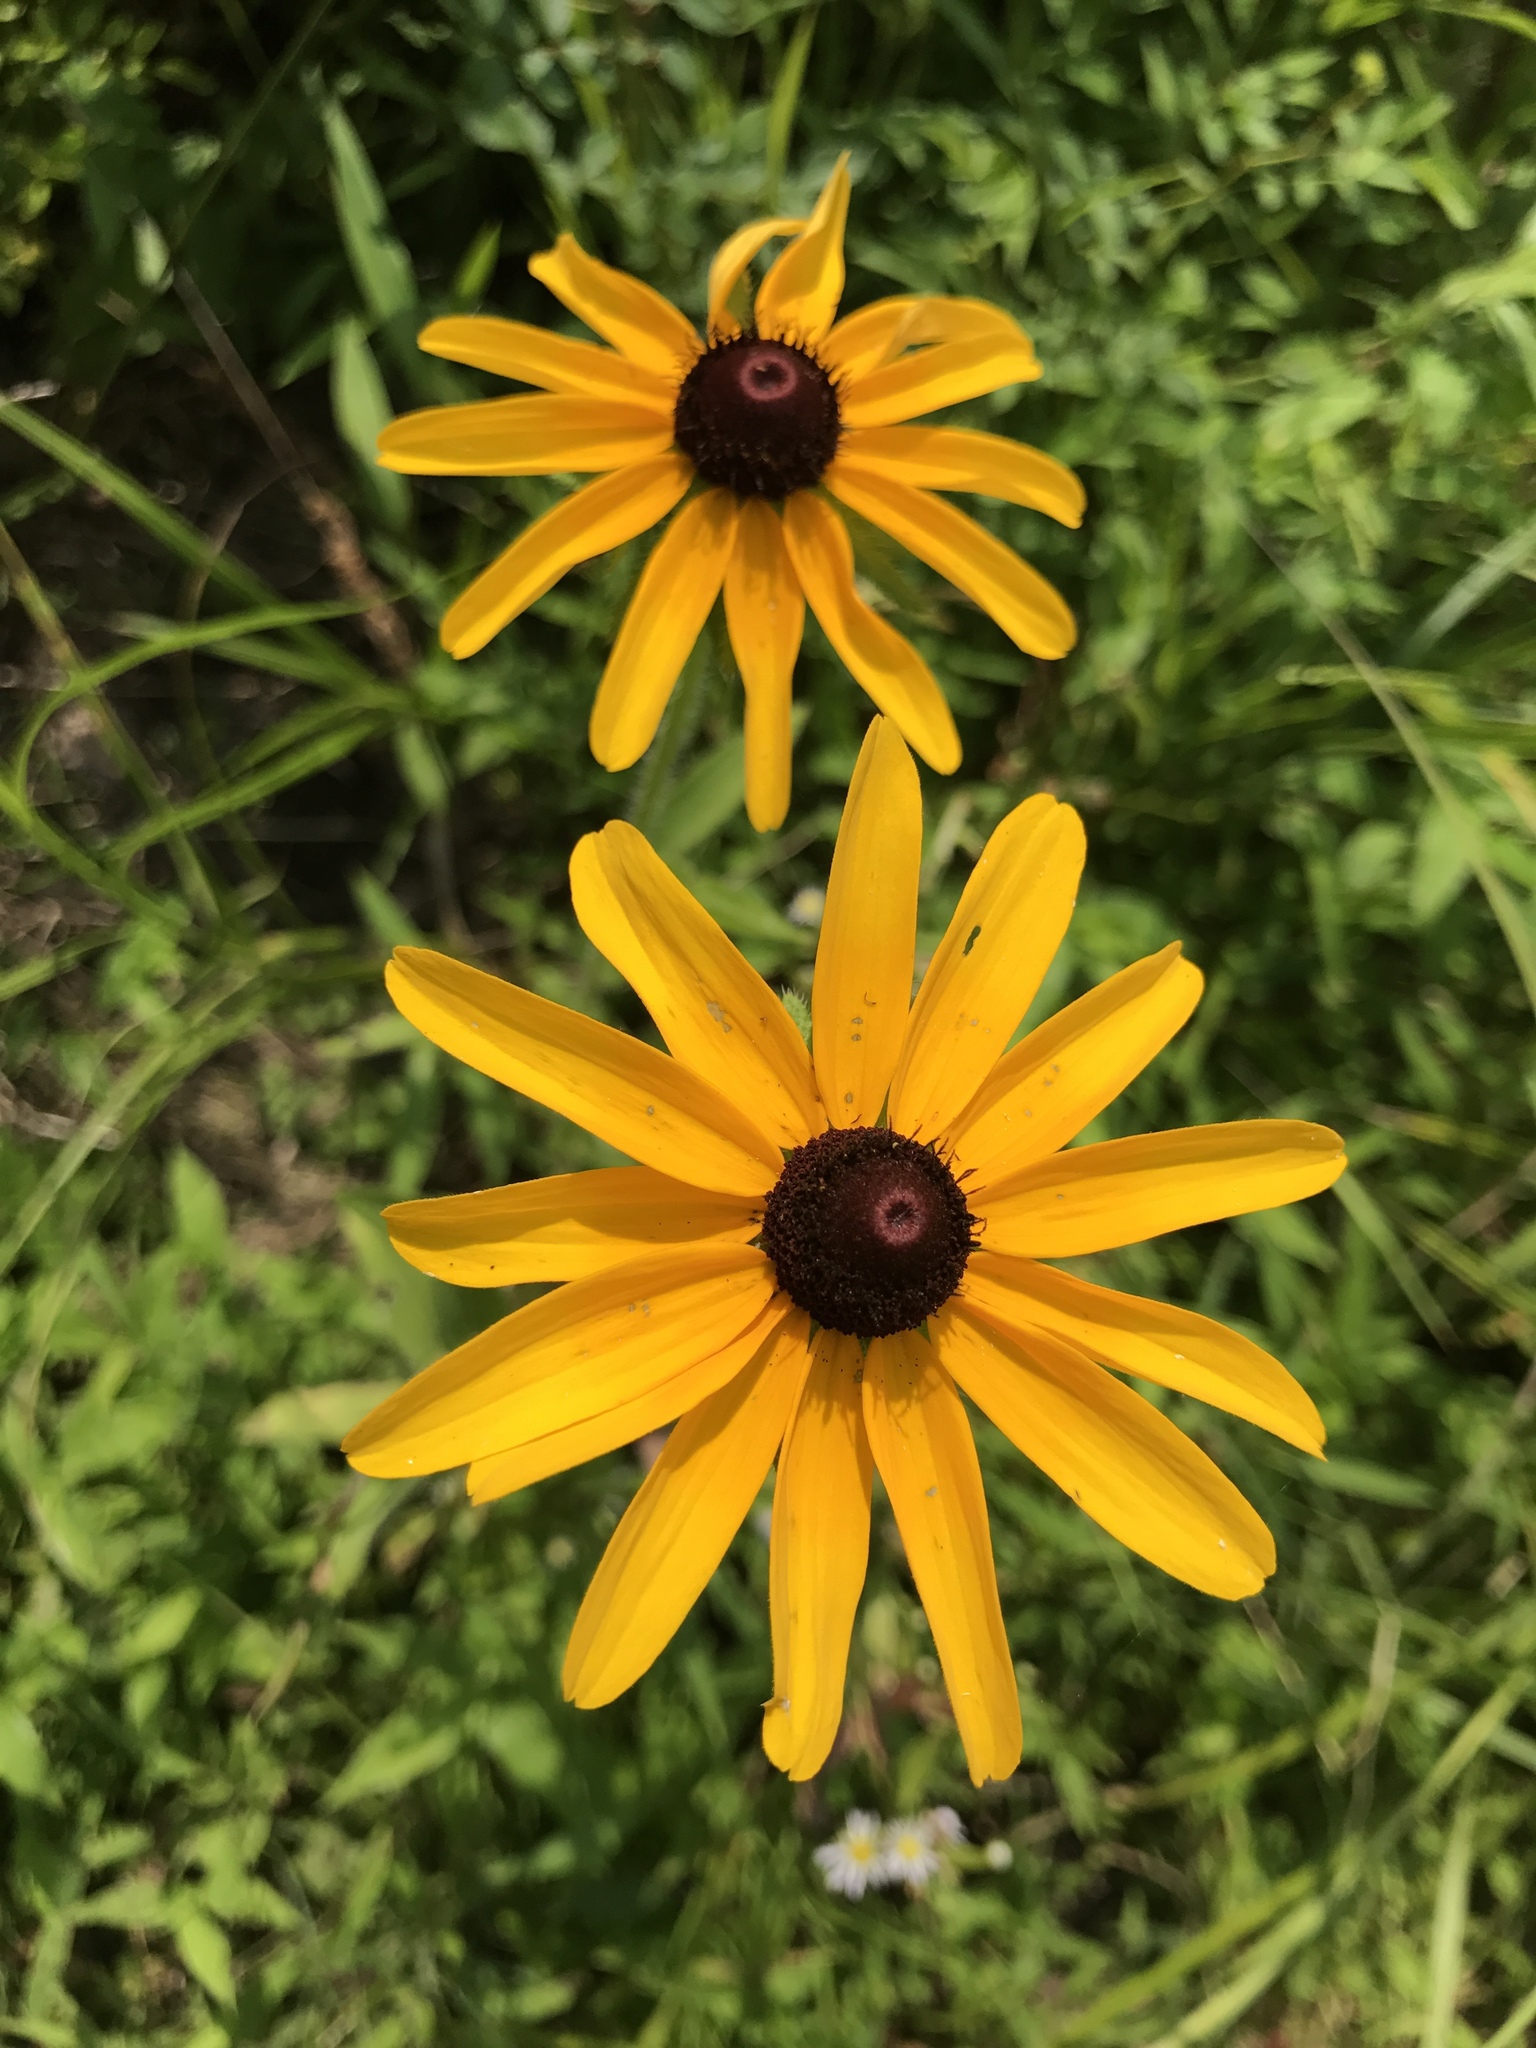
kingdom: Plantae
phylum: Tracheophyta
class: Magnoliopsida
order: Asterales
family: Asteraceae
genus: Rudbeckia
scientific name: Rudbeckia hirta
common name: Black-eyed-susan
